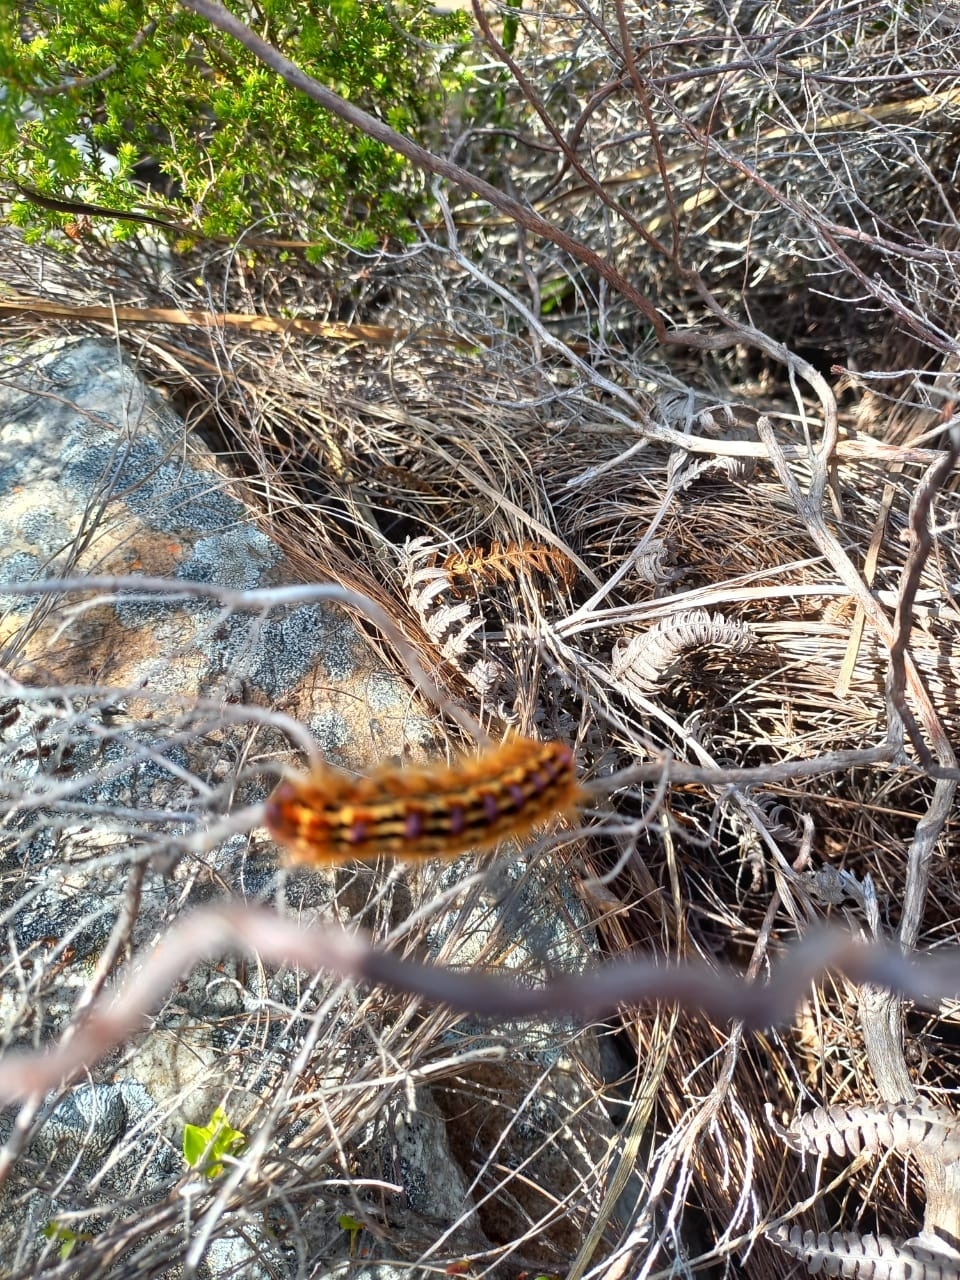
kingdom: Animalia
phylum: Arthropoda
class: Insecta
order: Lepidoptera
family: Lasiocampidae
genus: Eutricha
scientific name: Eutricha bifascia
